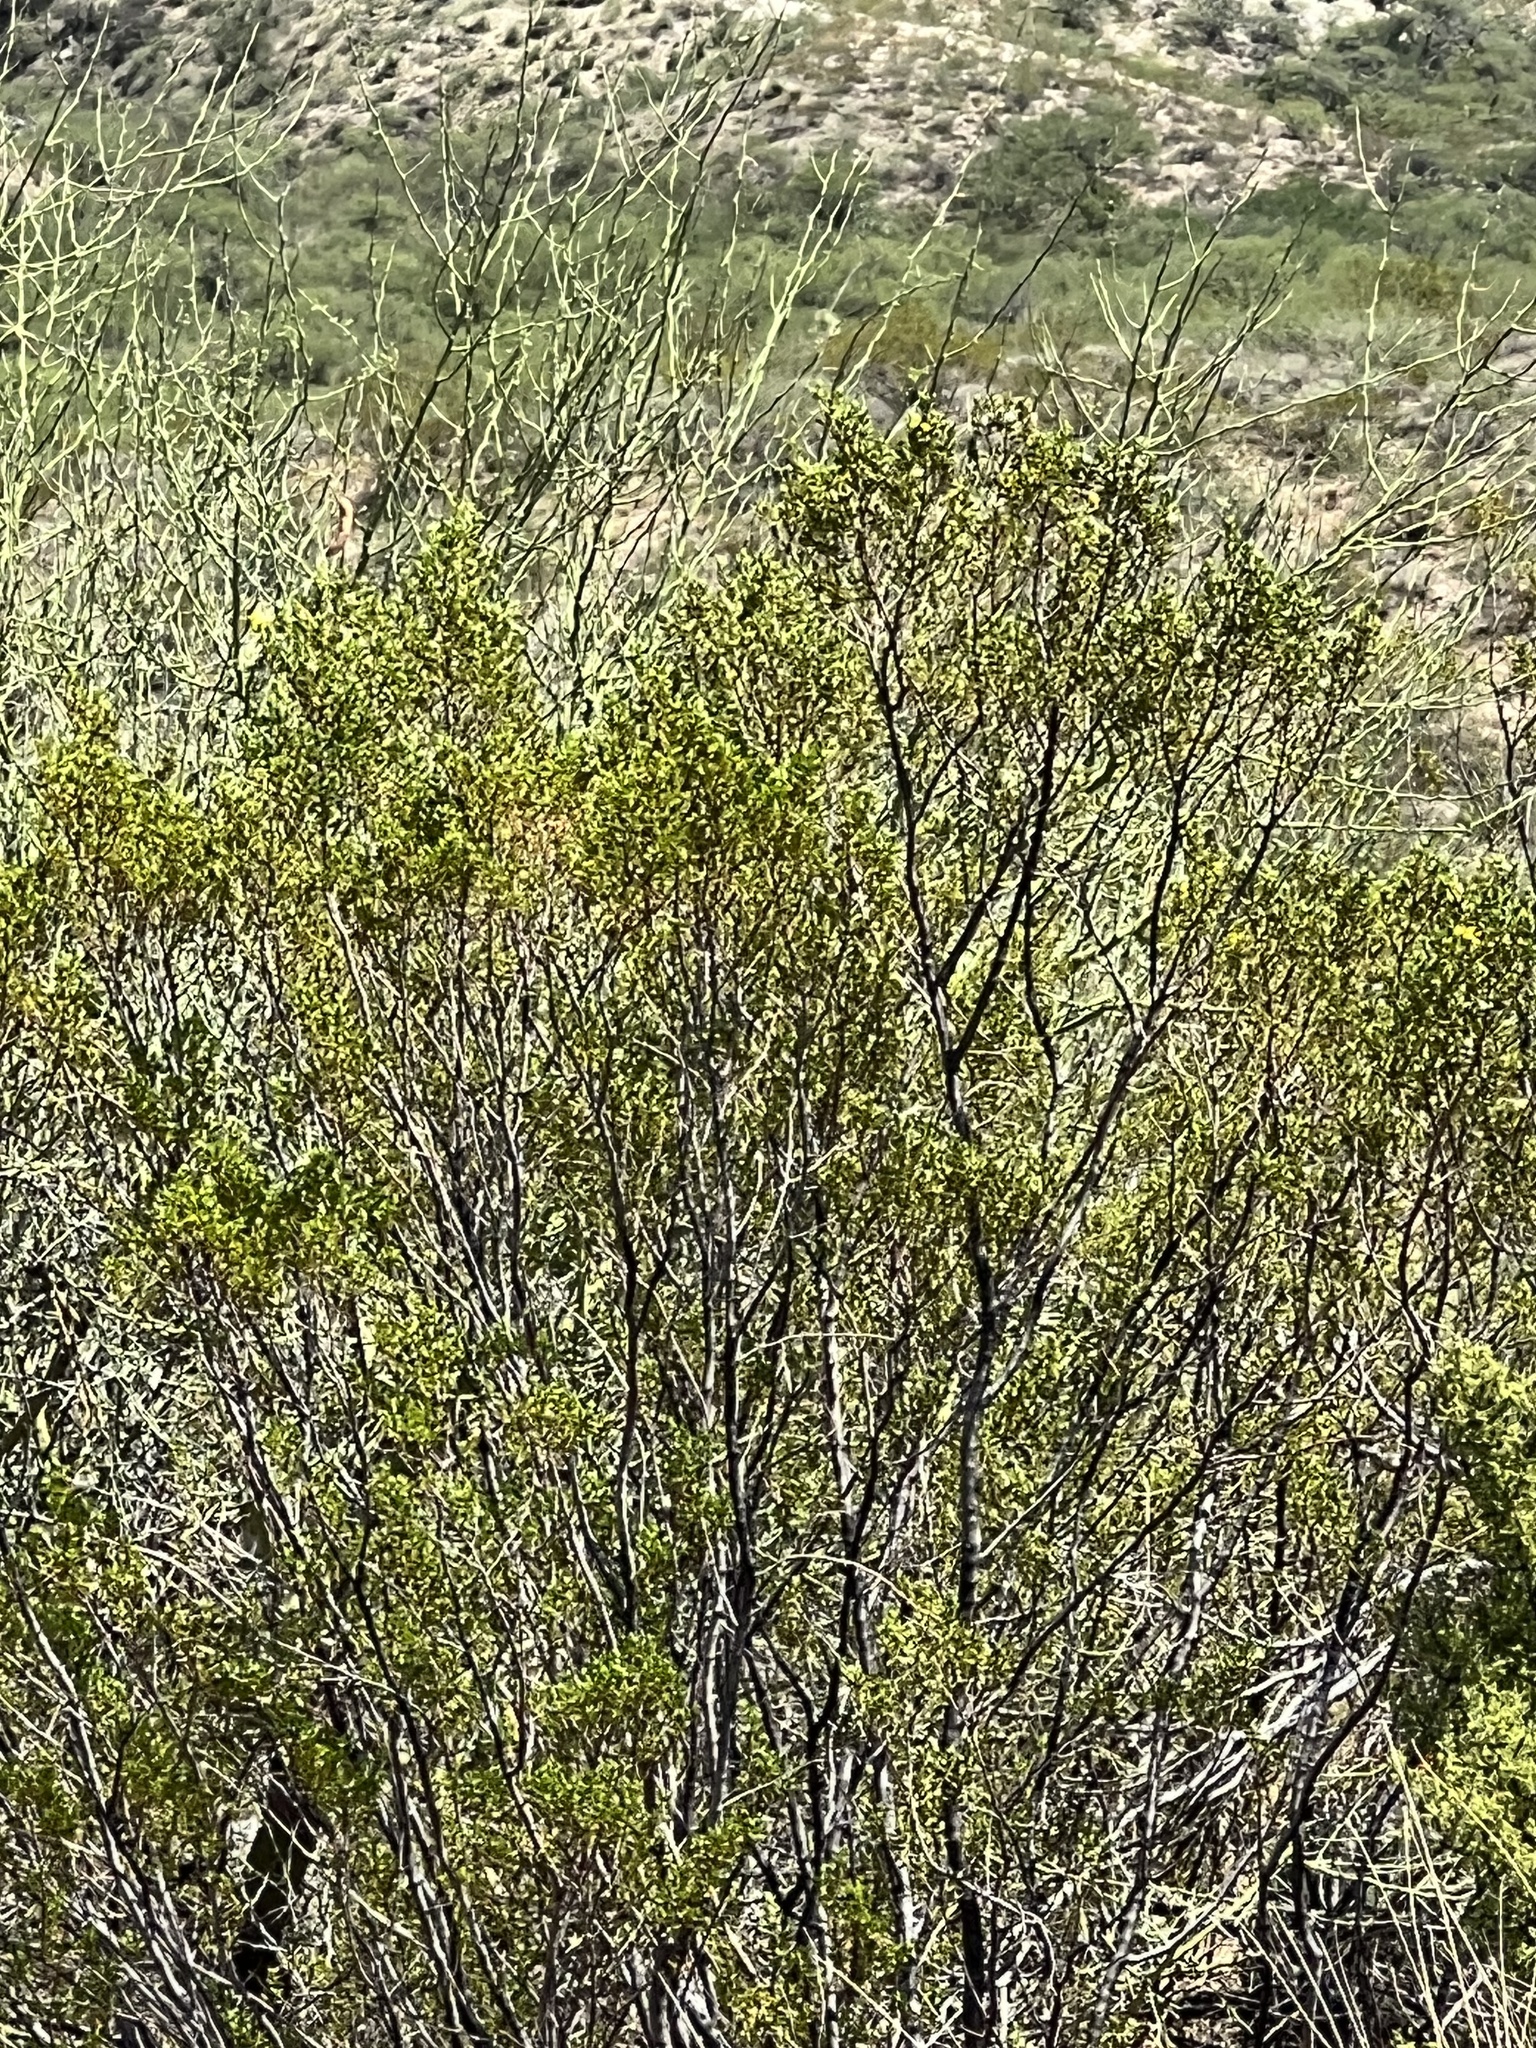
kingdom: Plantae
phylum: Tracheophyta
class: Magnoliopsida
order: Zygophyllales
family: Zygophyllaceae
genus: Larrea
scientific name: Larrea tridentata
